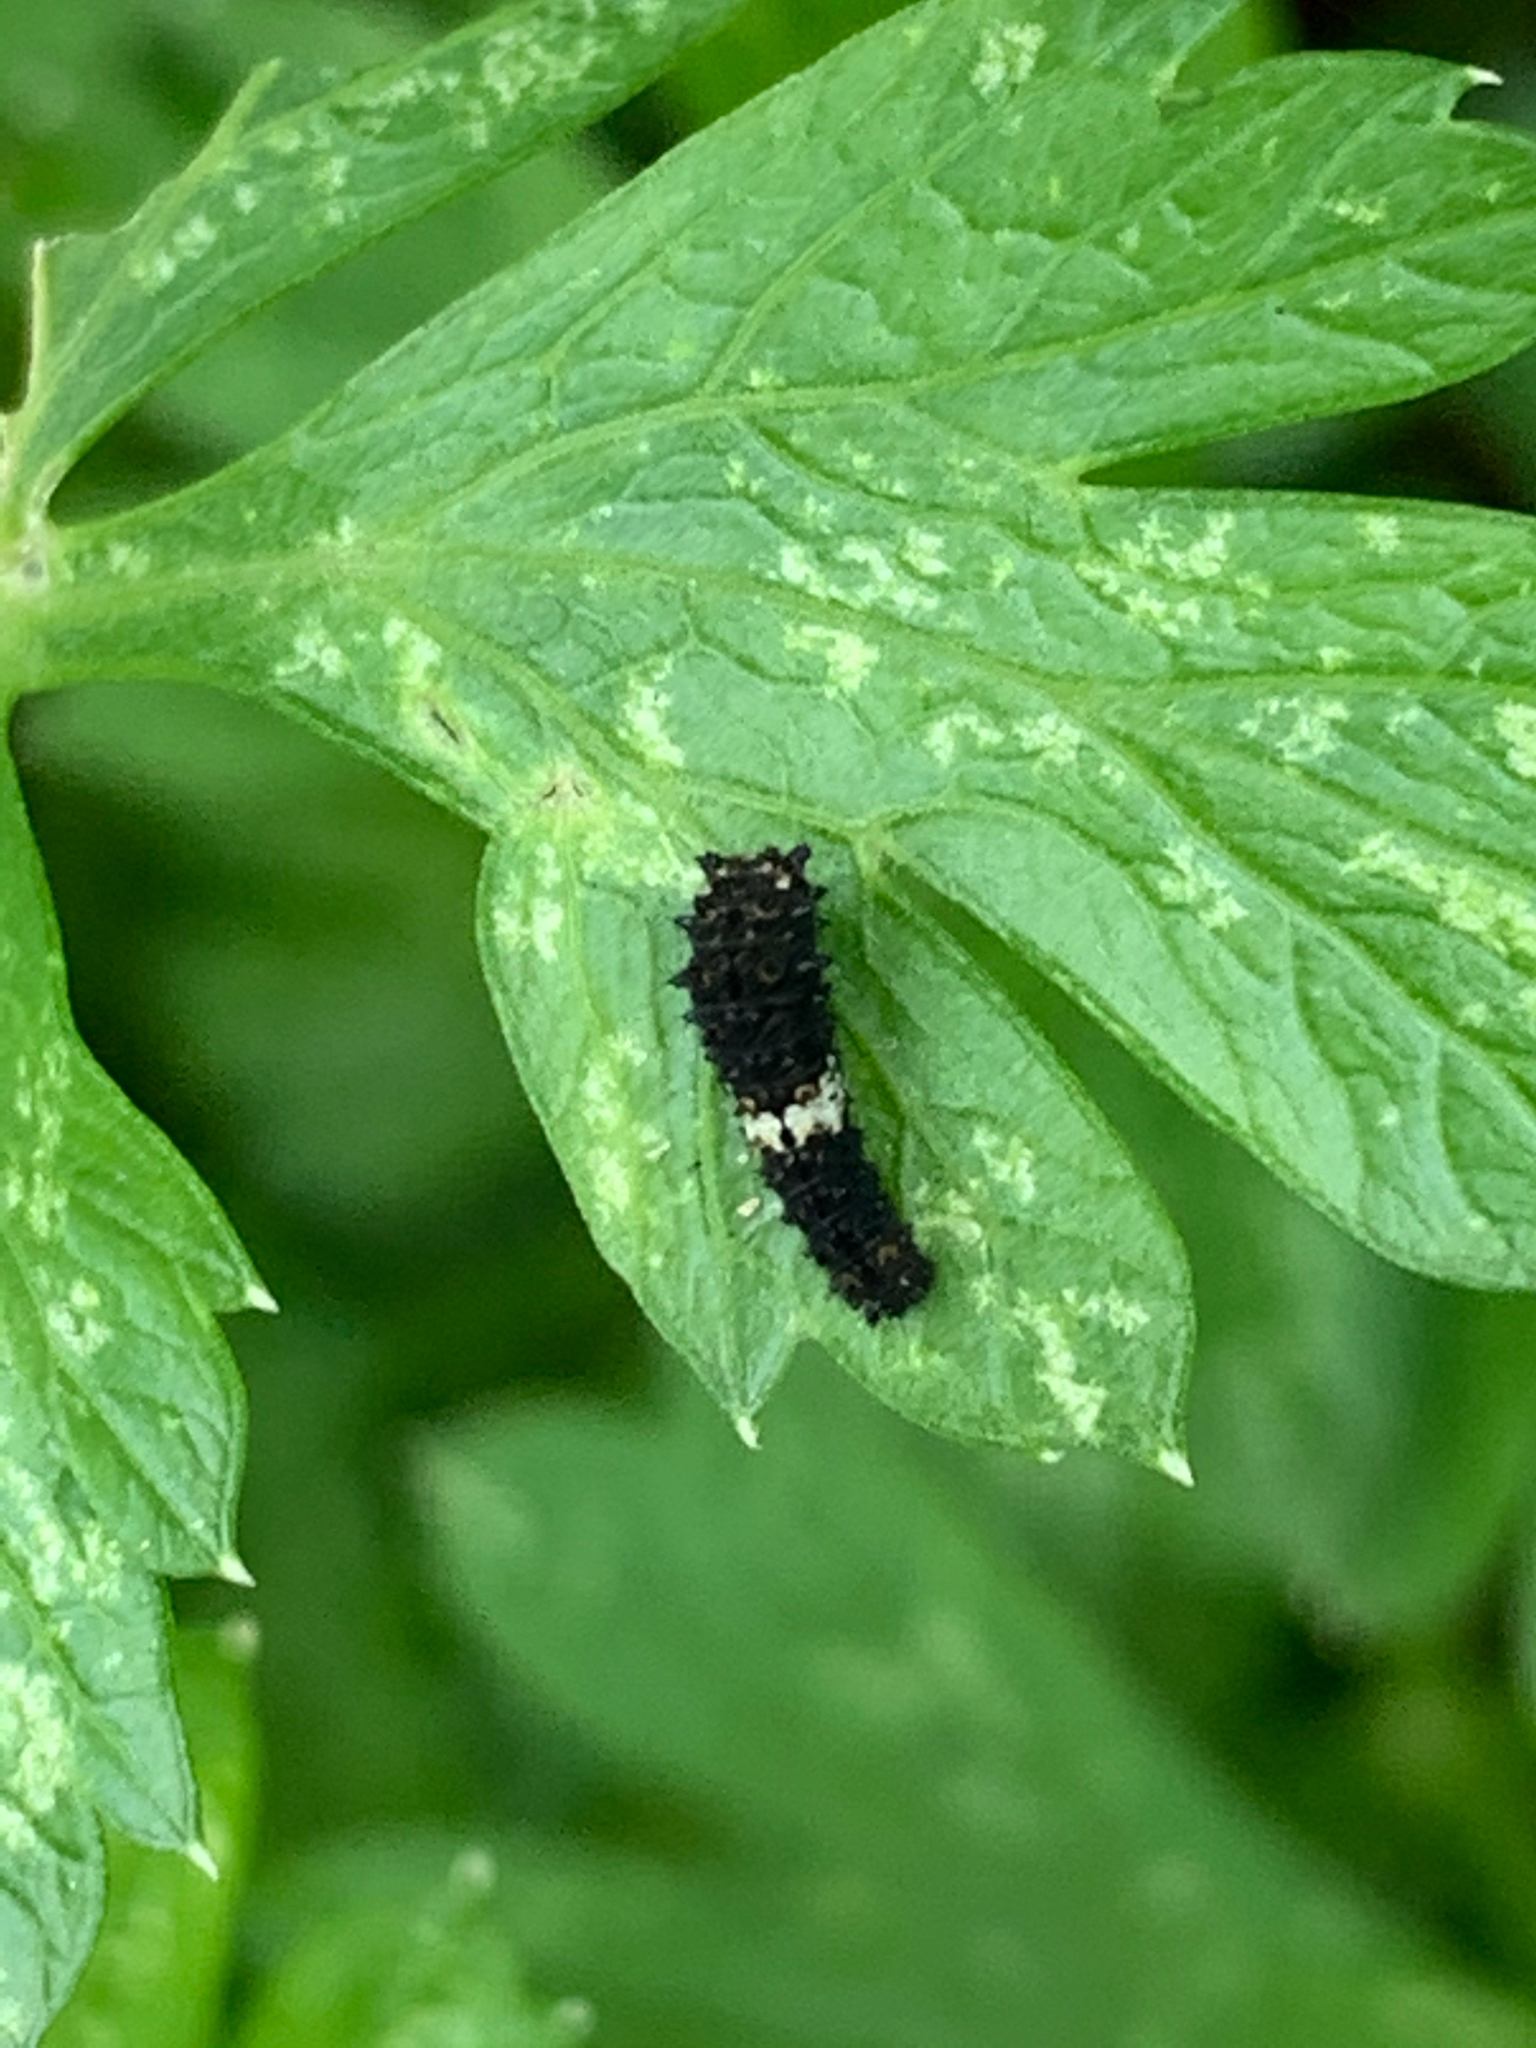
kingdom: Animalia
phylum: Arthropoda
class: Insecta
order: Lepidoptera
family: Papilionidae
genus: Papilio
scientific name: Papilio polyxenes
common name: Black swallowtail
